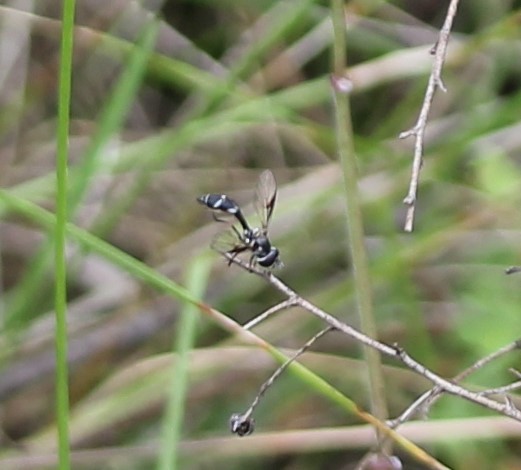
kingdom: Animalia
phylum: Arthropoda
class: Insecta
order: Diptera
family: Syrphidae
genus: Dioprosopa
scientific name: Dioprosopa clavatus
